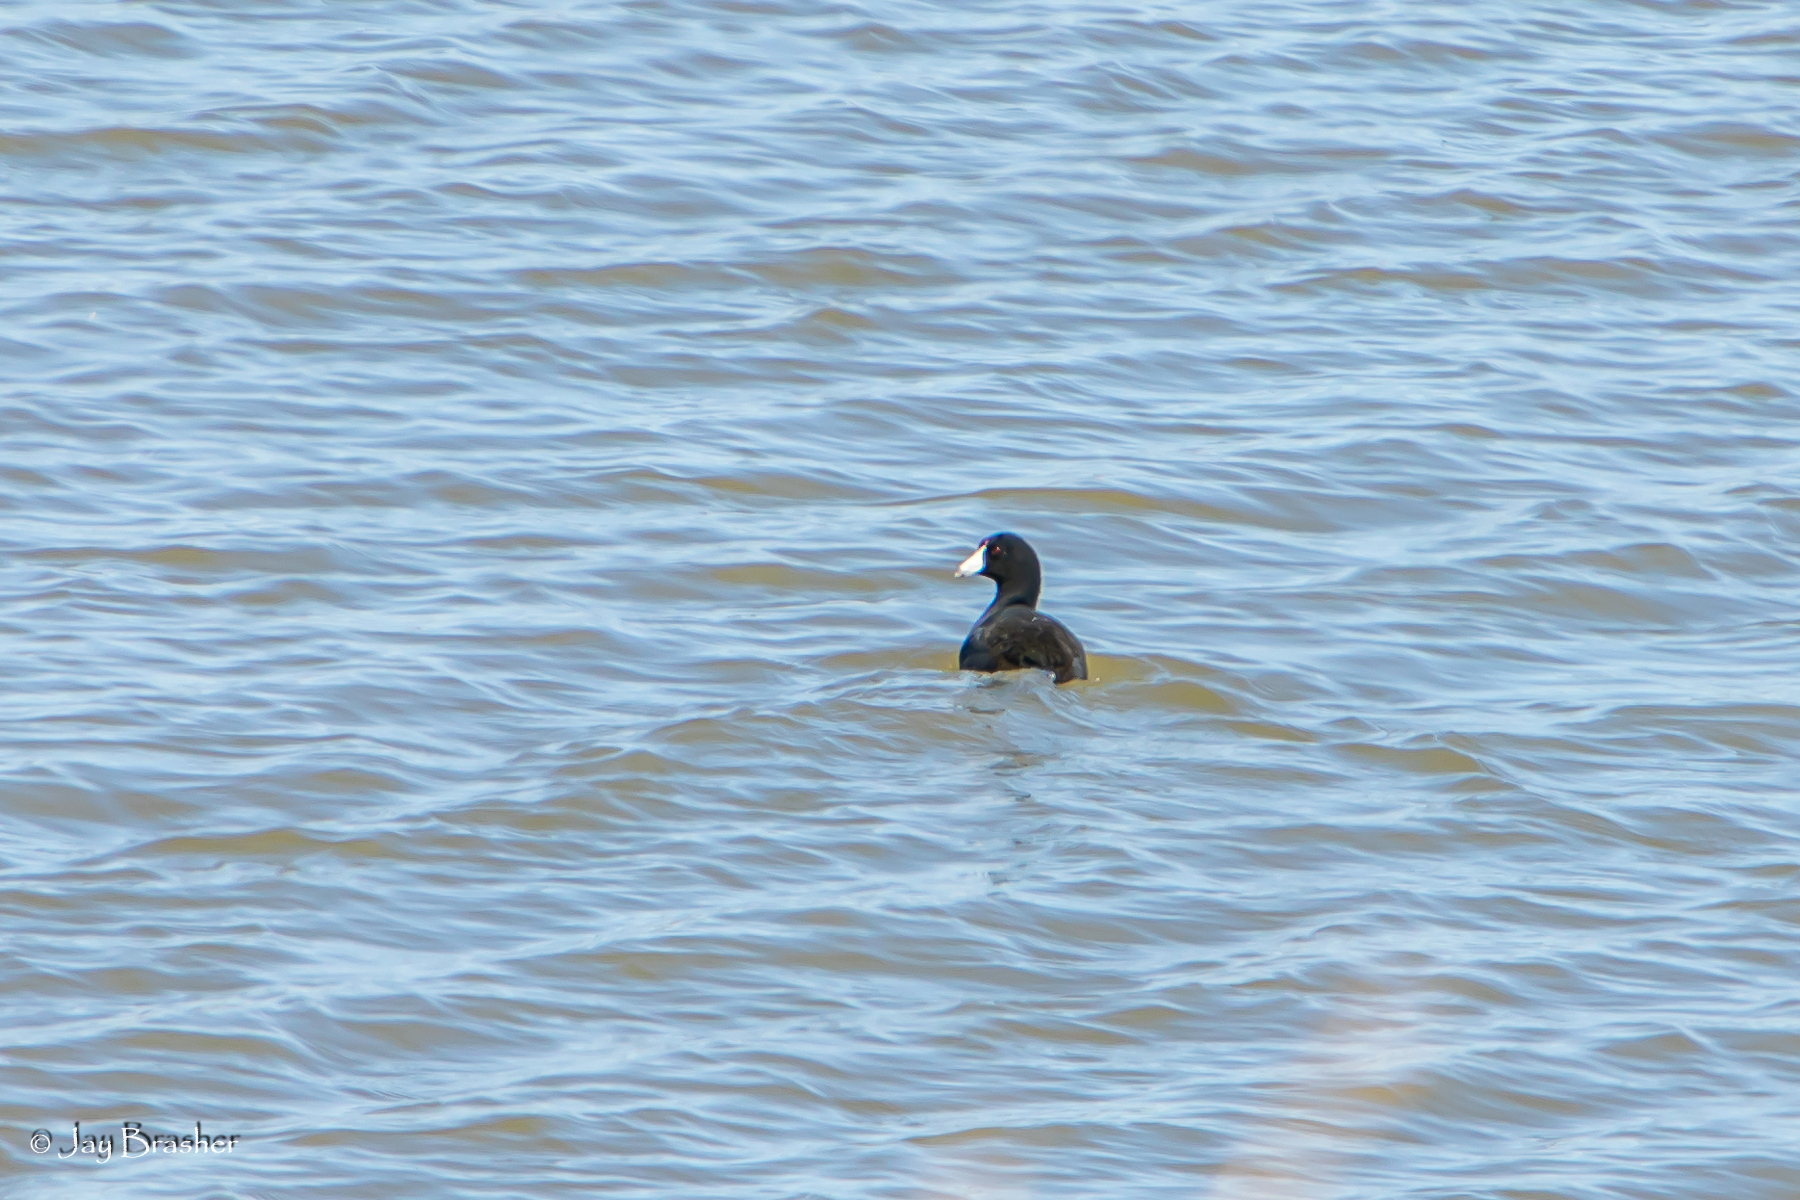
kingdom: Animalia
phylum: Chordata
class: Aves
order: Gruiformes
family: Rallidae
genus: Fulica
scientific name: Fulica americana
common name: American coot
